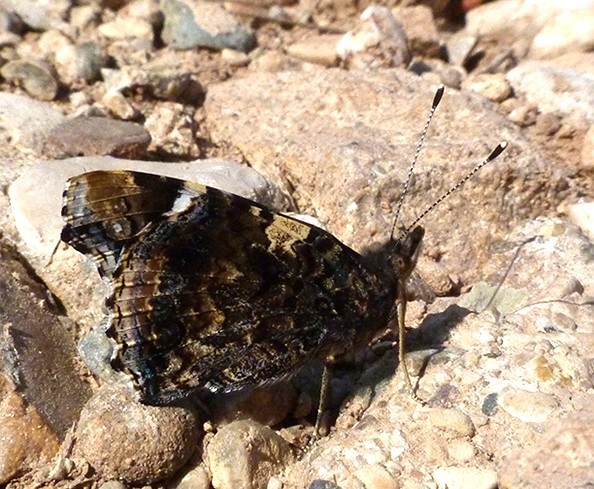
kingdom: Animalia
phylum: Arthropoda
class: Insecta
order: Lepidoptera
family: Nymphalidae
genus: Vanessa
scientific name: Vanessa atalanta
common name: Red admiral
